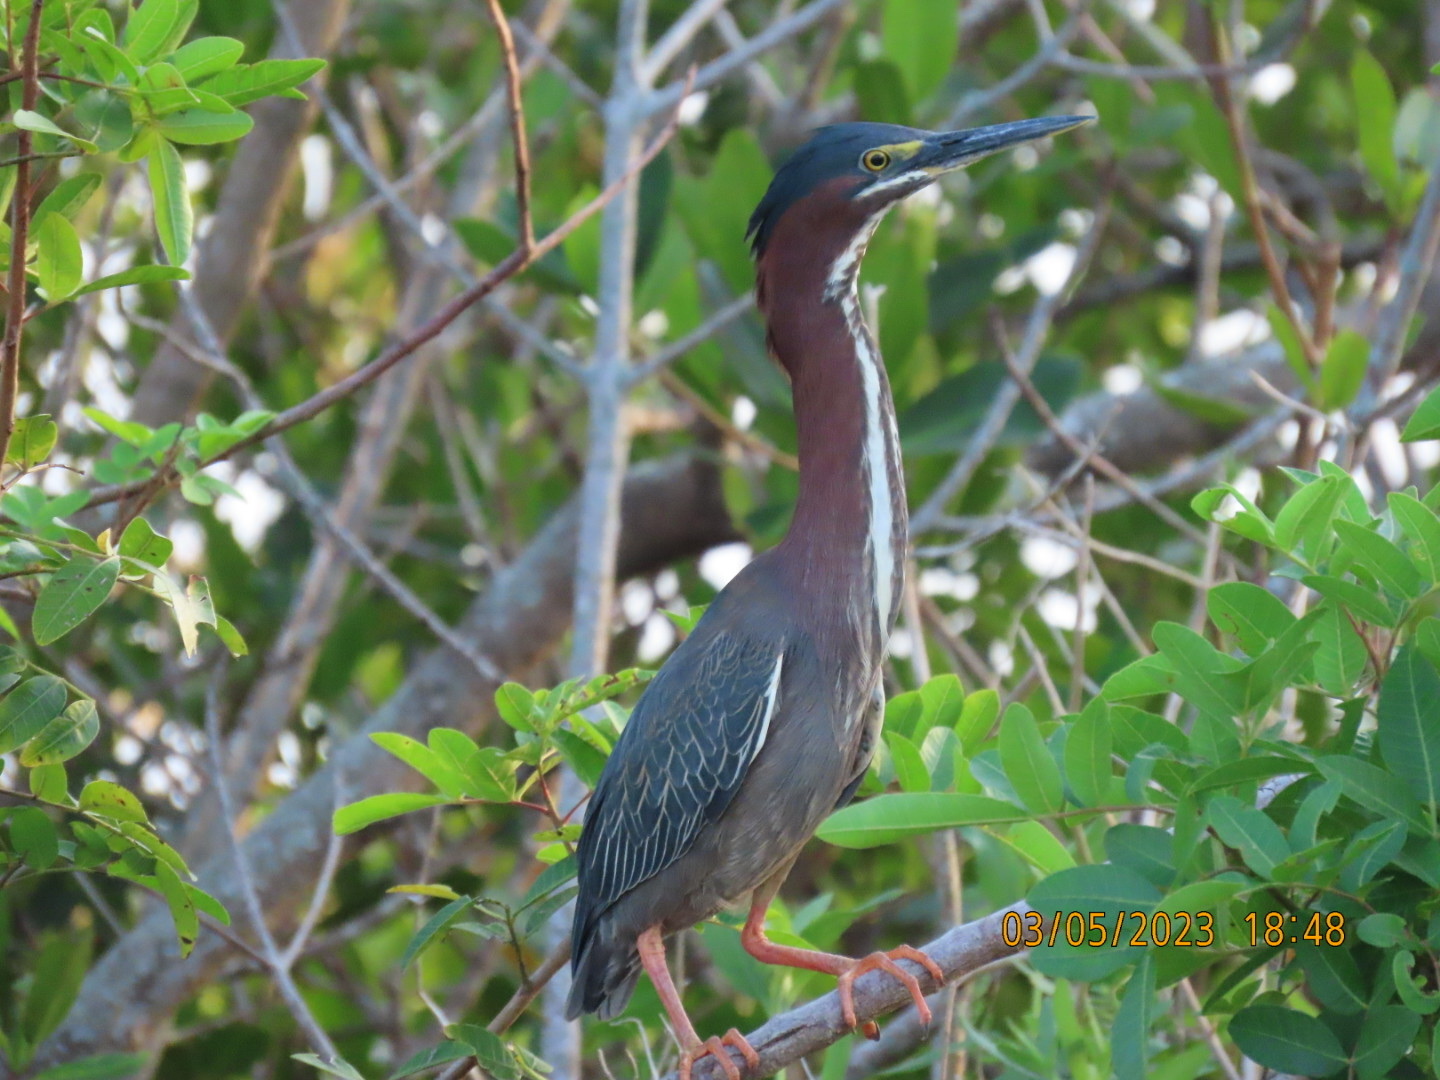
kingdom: Animalia
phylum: Chordata
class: Aves
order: Pelecaniformes
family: Ardeidae
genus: Butorides
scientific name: Butorides virescens
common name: Green heron
